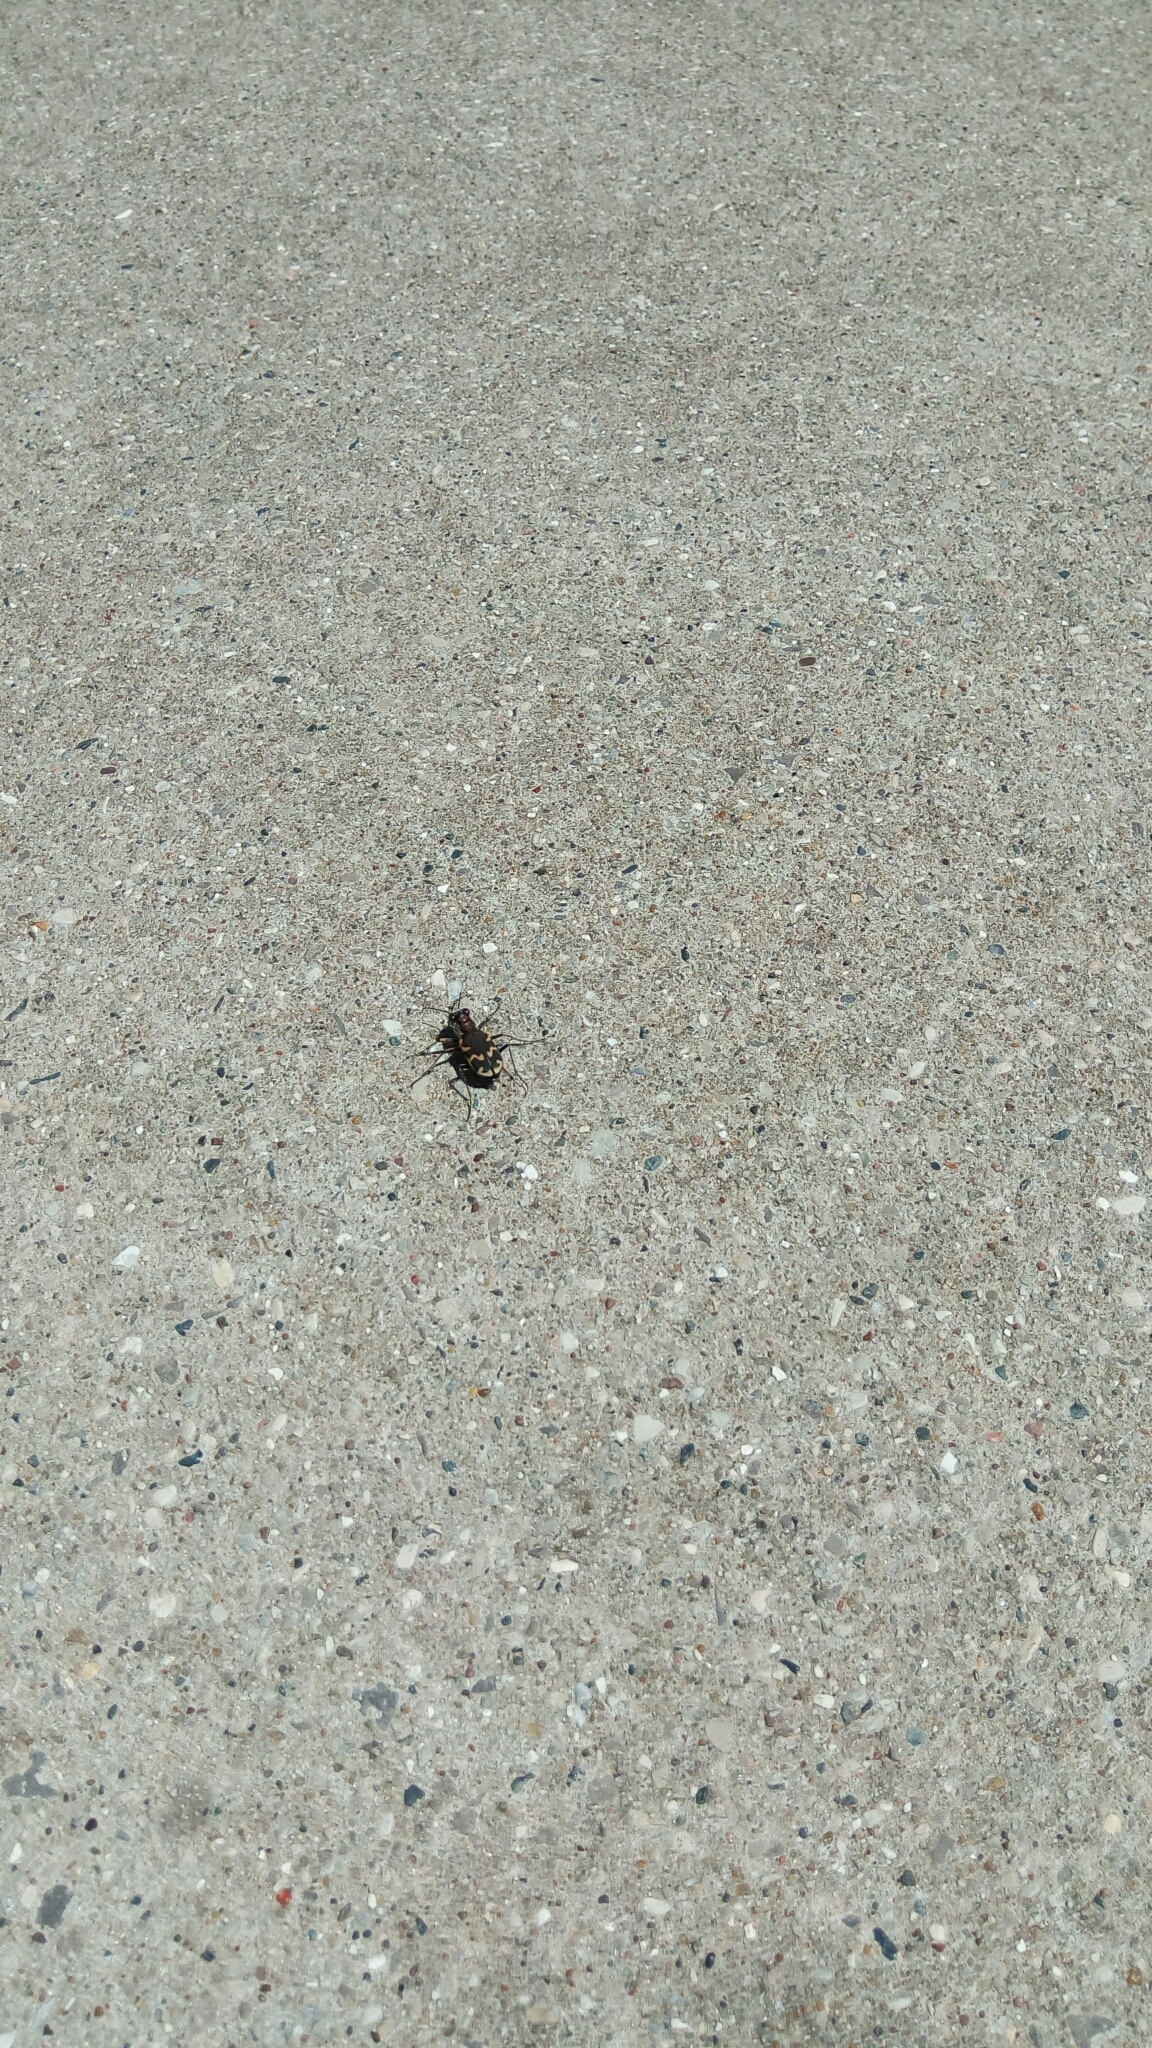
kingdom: Animalia
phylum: Arthropoda
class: Insecta
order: Coleoptera
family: Carabidae
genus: Cicindela
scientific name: Cicindela formosa
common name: Big sand tiger beetle
